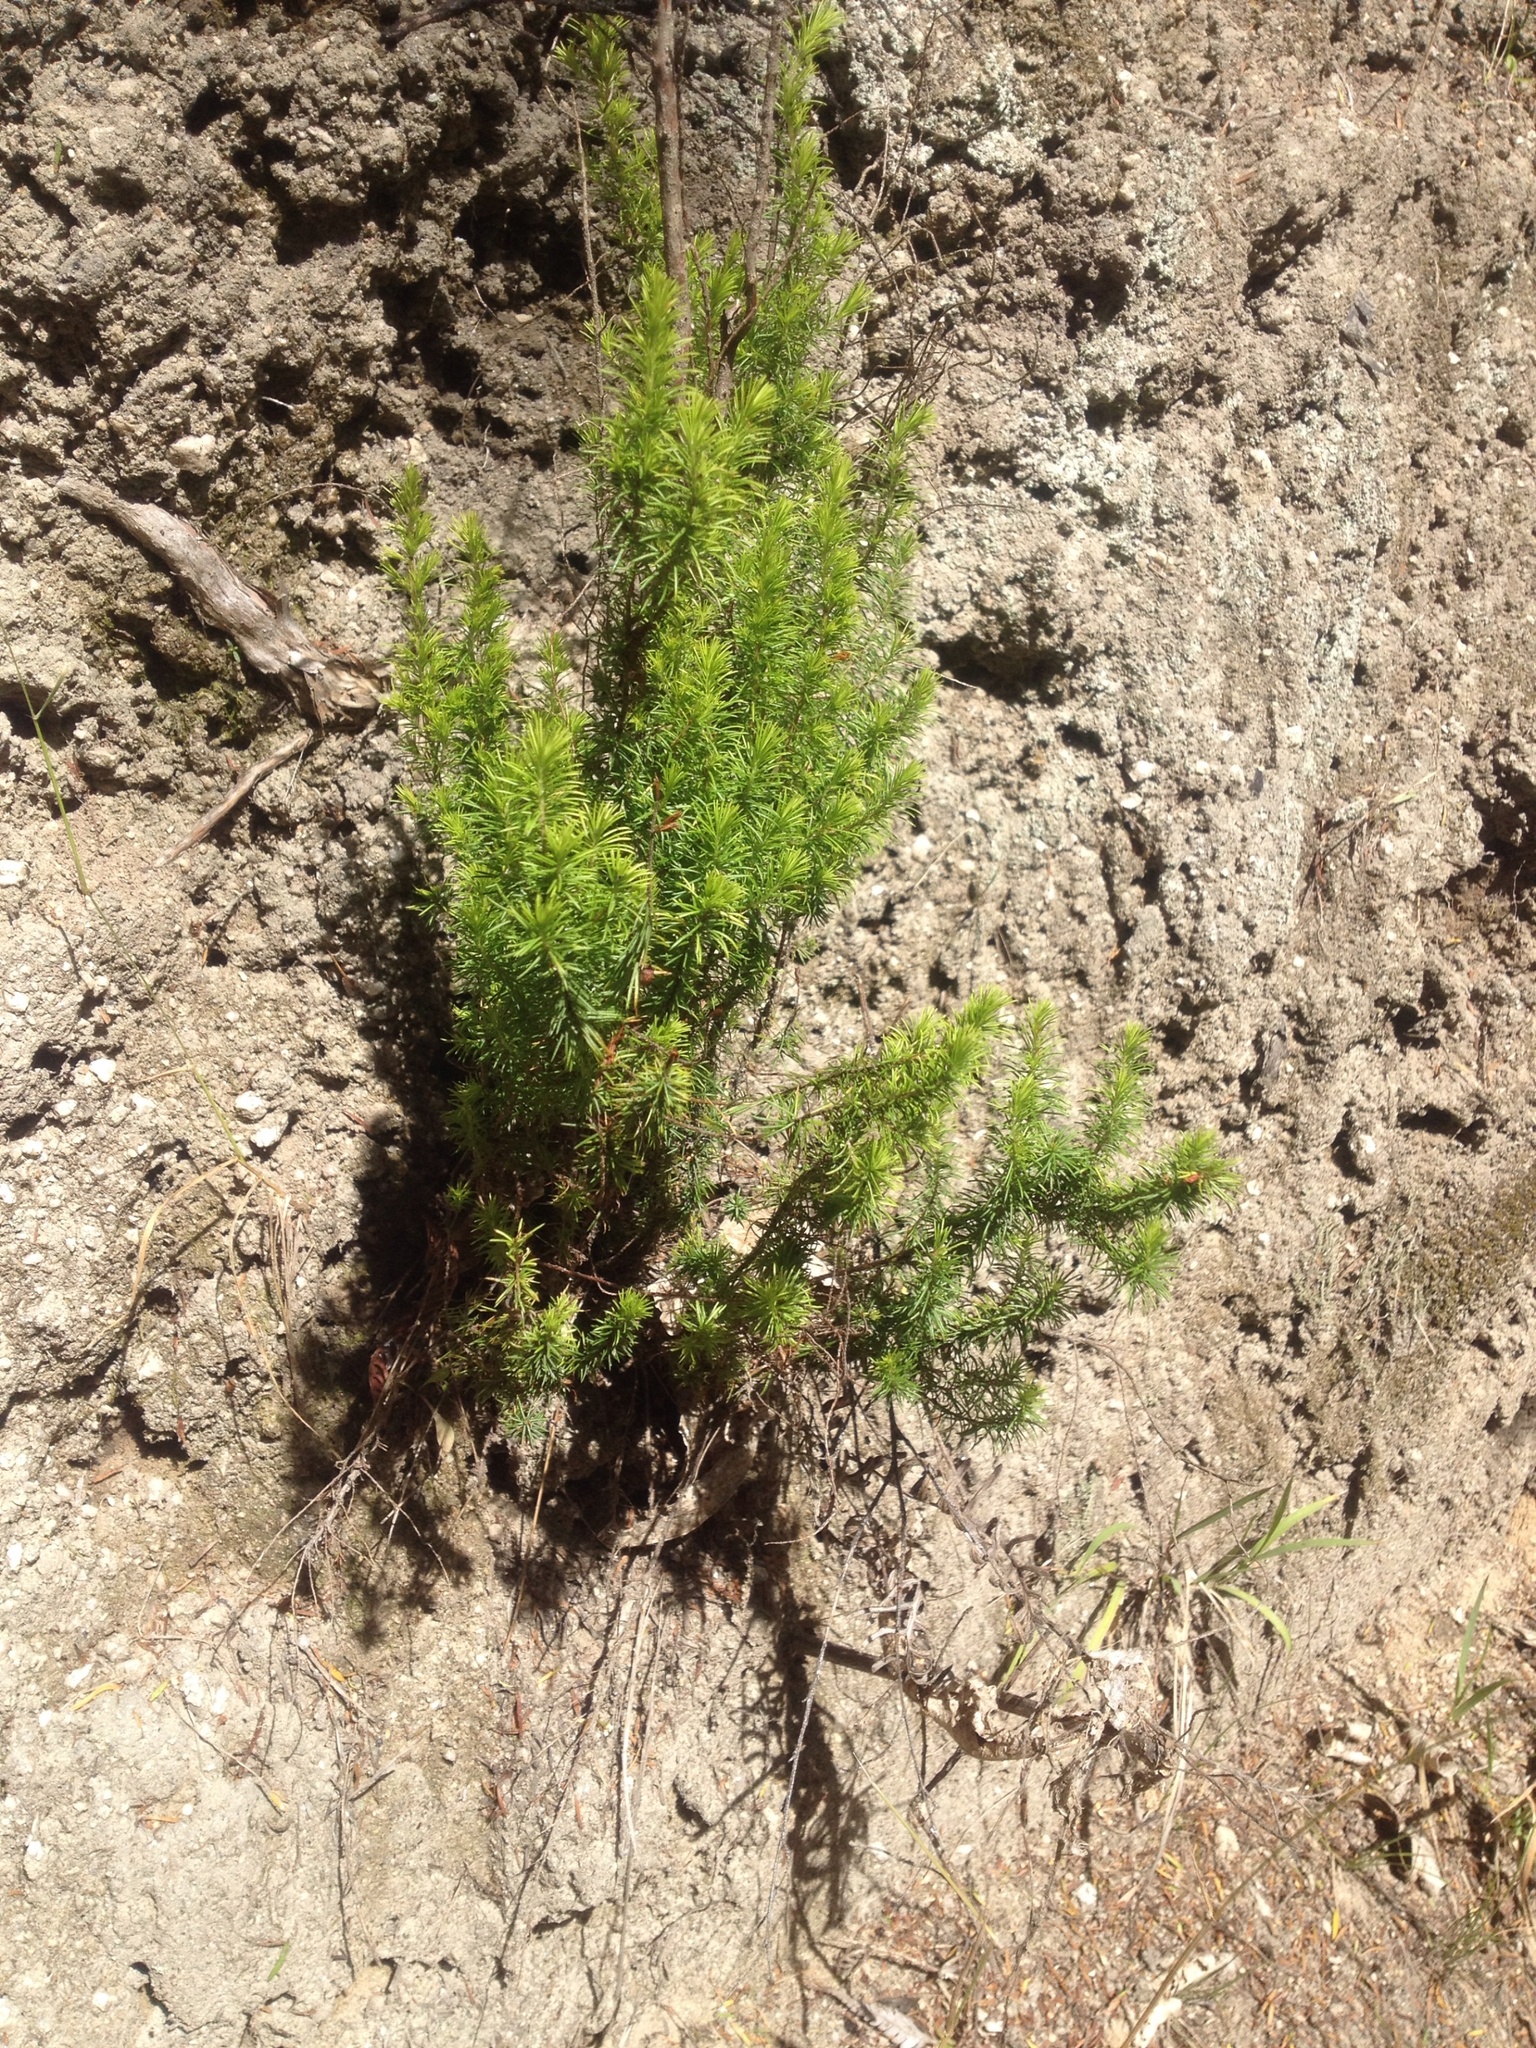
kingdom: Plantae
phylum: Tracheophyta
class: Magnoliopsida
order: Ericales
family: Ericaceae
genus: Erica
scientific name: Erica lusitanica
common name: Spanish heath
